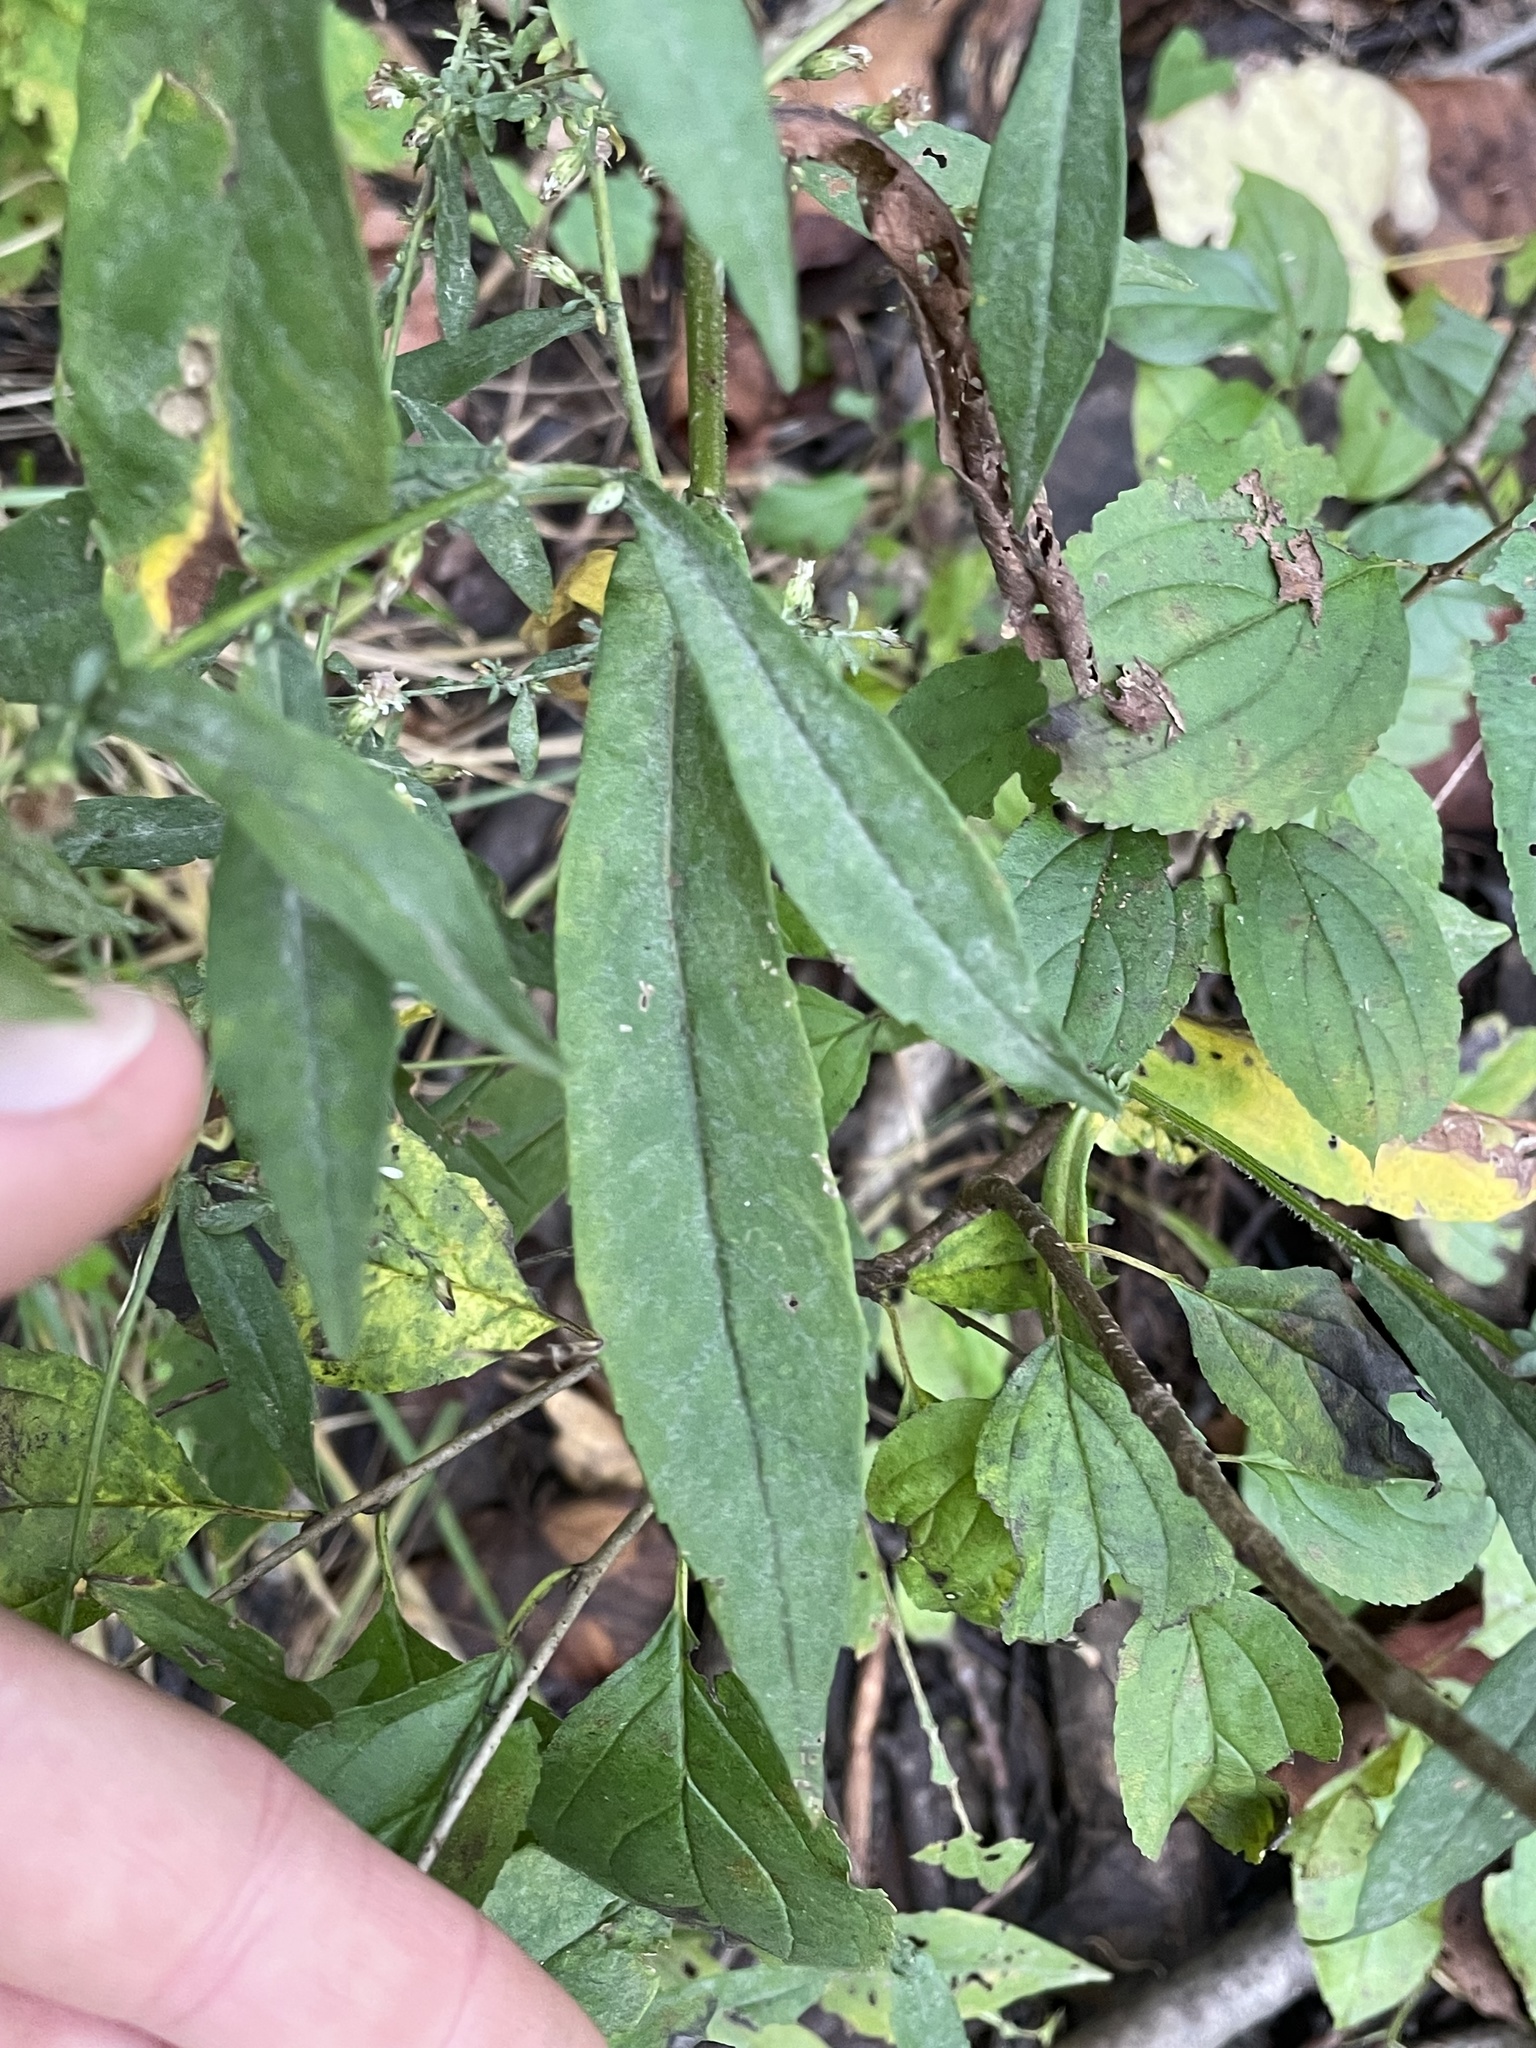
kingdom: Plantae
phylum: Tracheophyta
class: Magnoliopsida
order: Asterales
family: Asteraceae
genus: Symphyotrichum
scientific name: Symphyotrichum lateriflorum
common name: Calico aster
